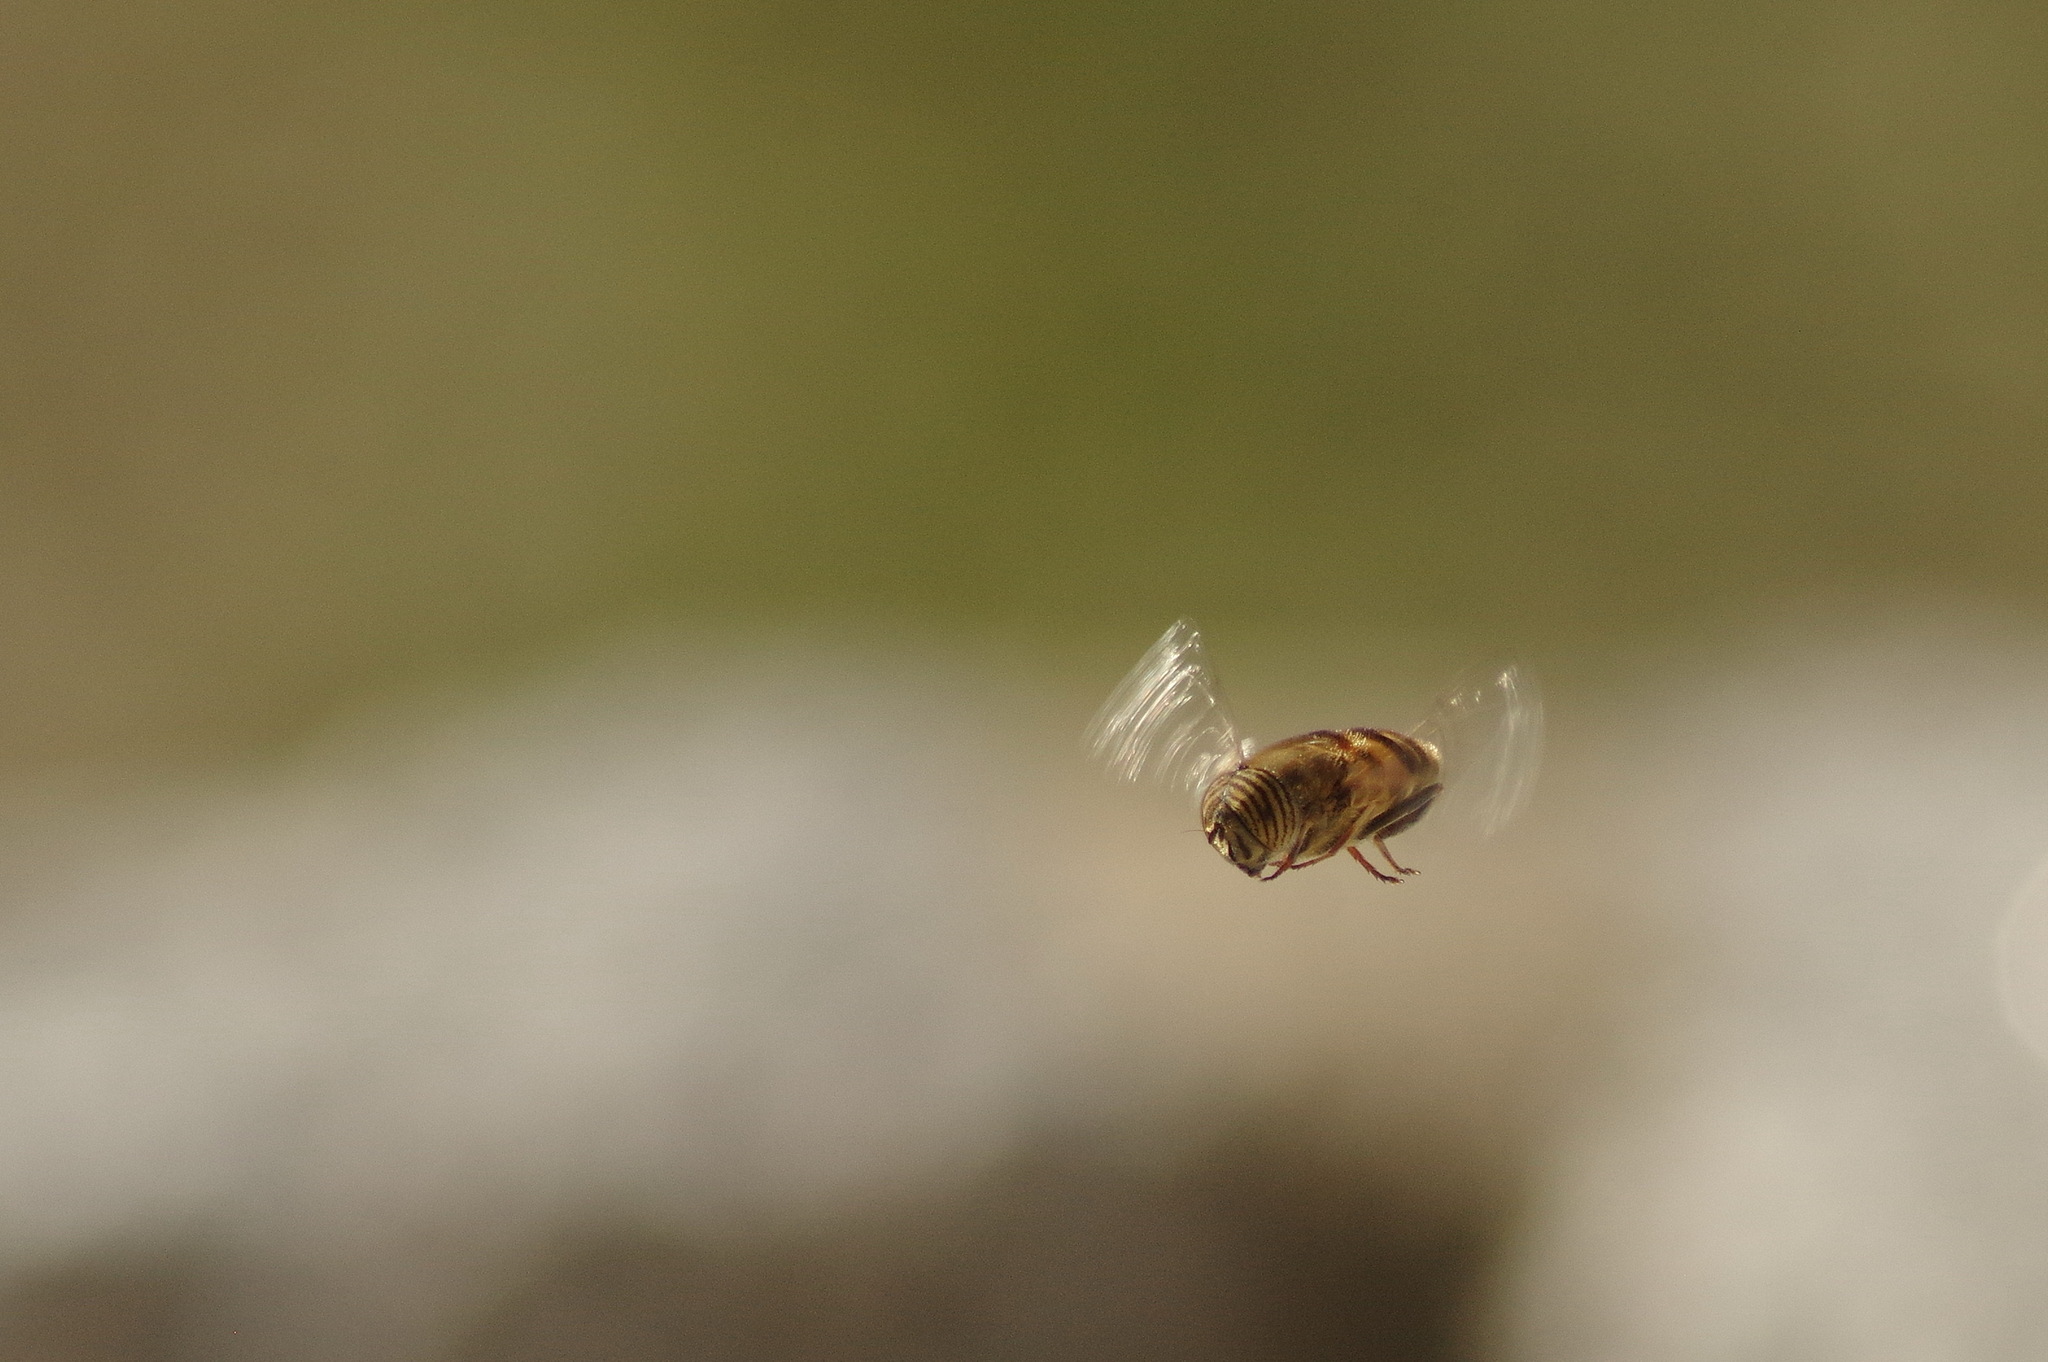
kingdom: Animalia
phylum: Arthropoda
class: Insecta
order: Diptera
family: Syrphidae
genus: Eristalinus
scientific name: Eristalinus taeniops
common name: Syrphid fly
